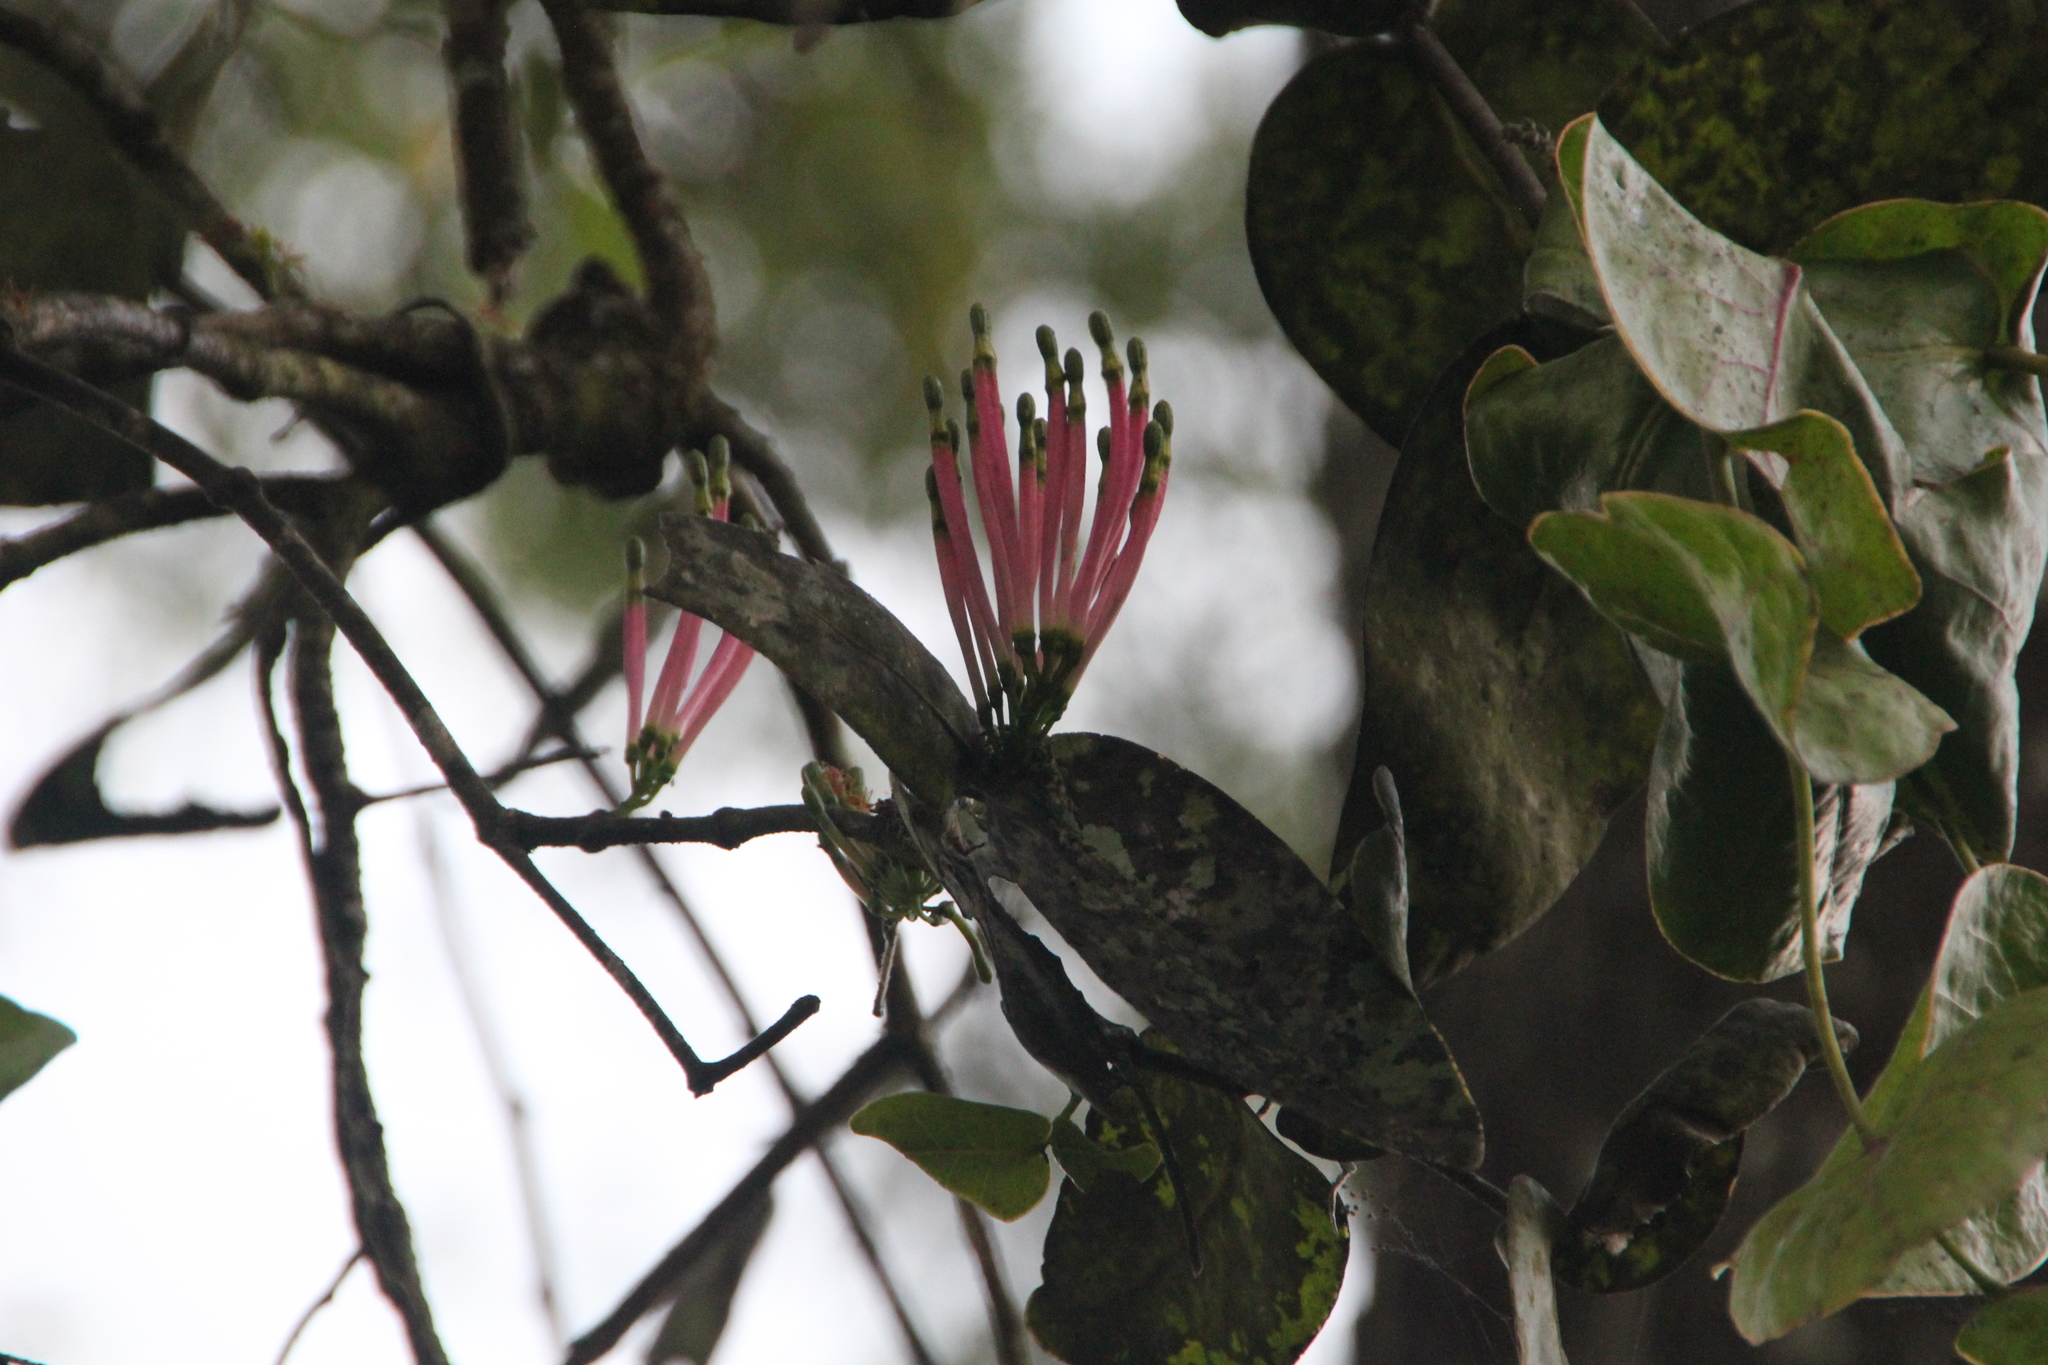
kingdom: Plantae
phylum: Tracheophyta
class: Magnoliopsida
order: Santalales
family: Loranthaceae
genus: Dendrophthoe
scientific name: Dendrophthoe falcata
